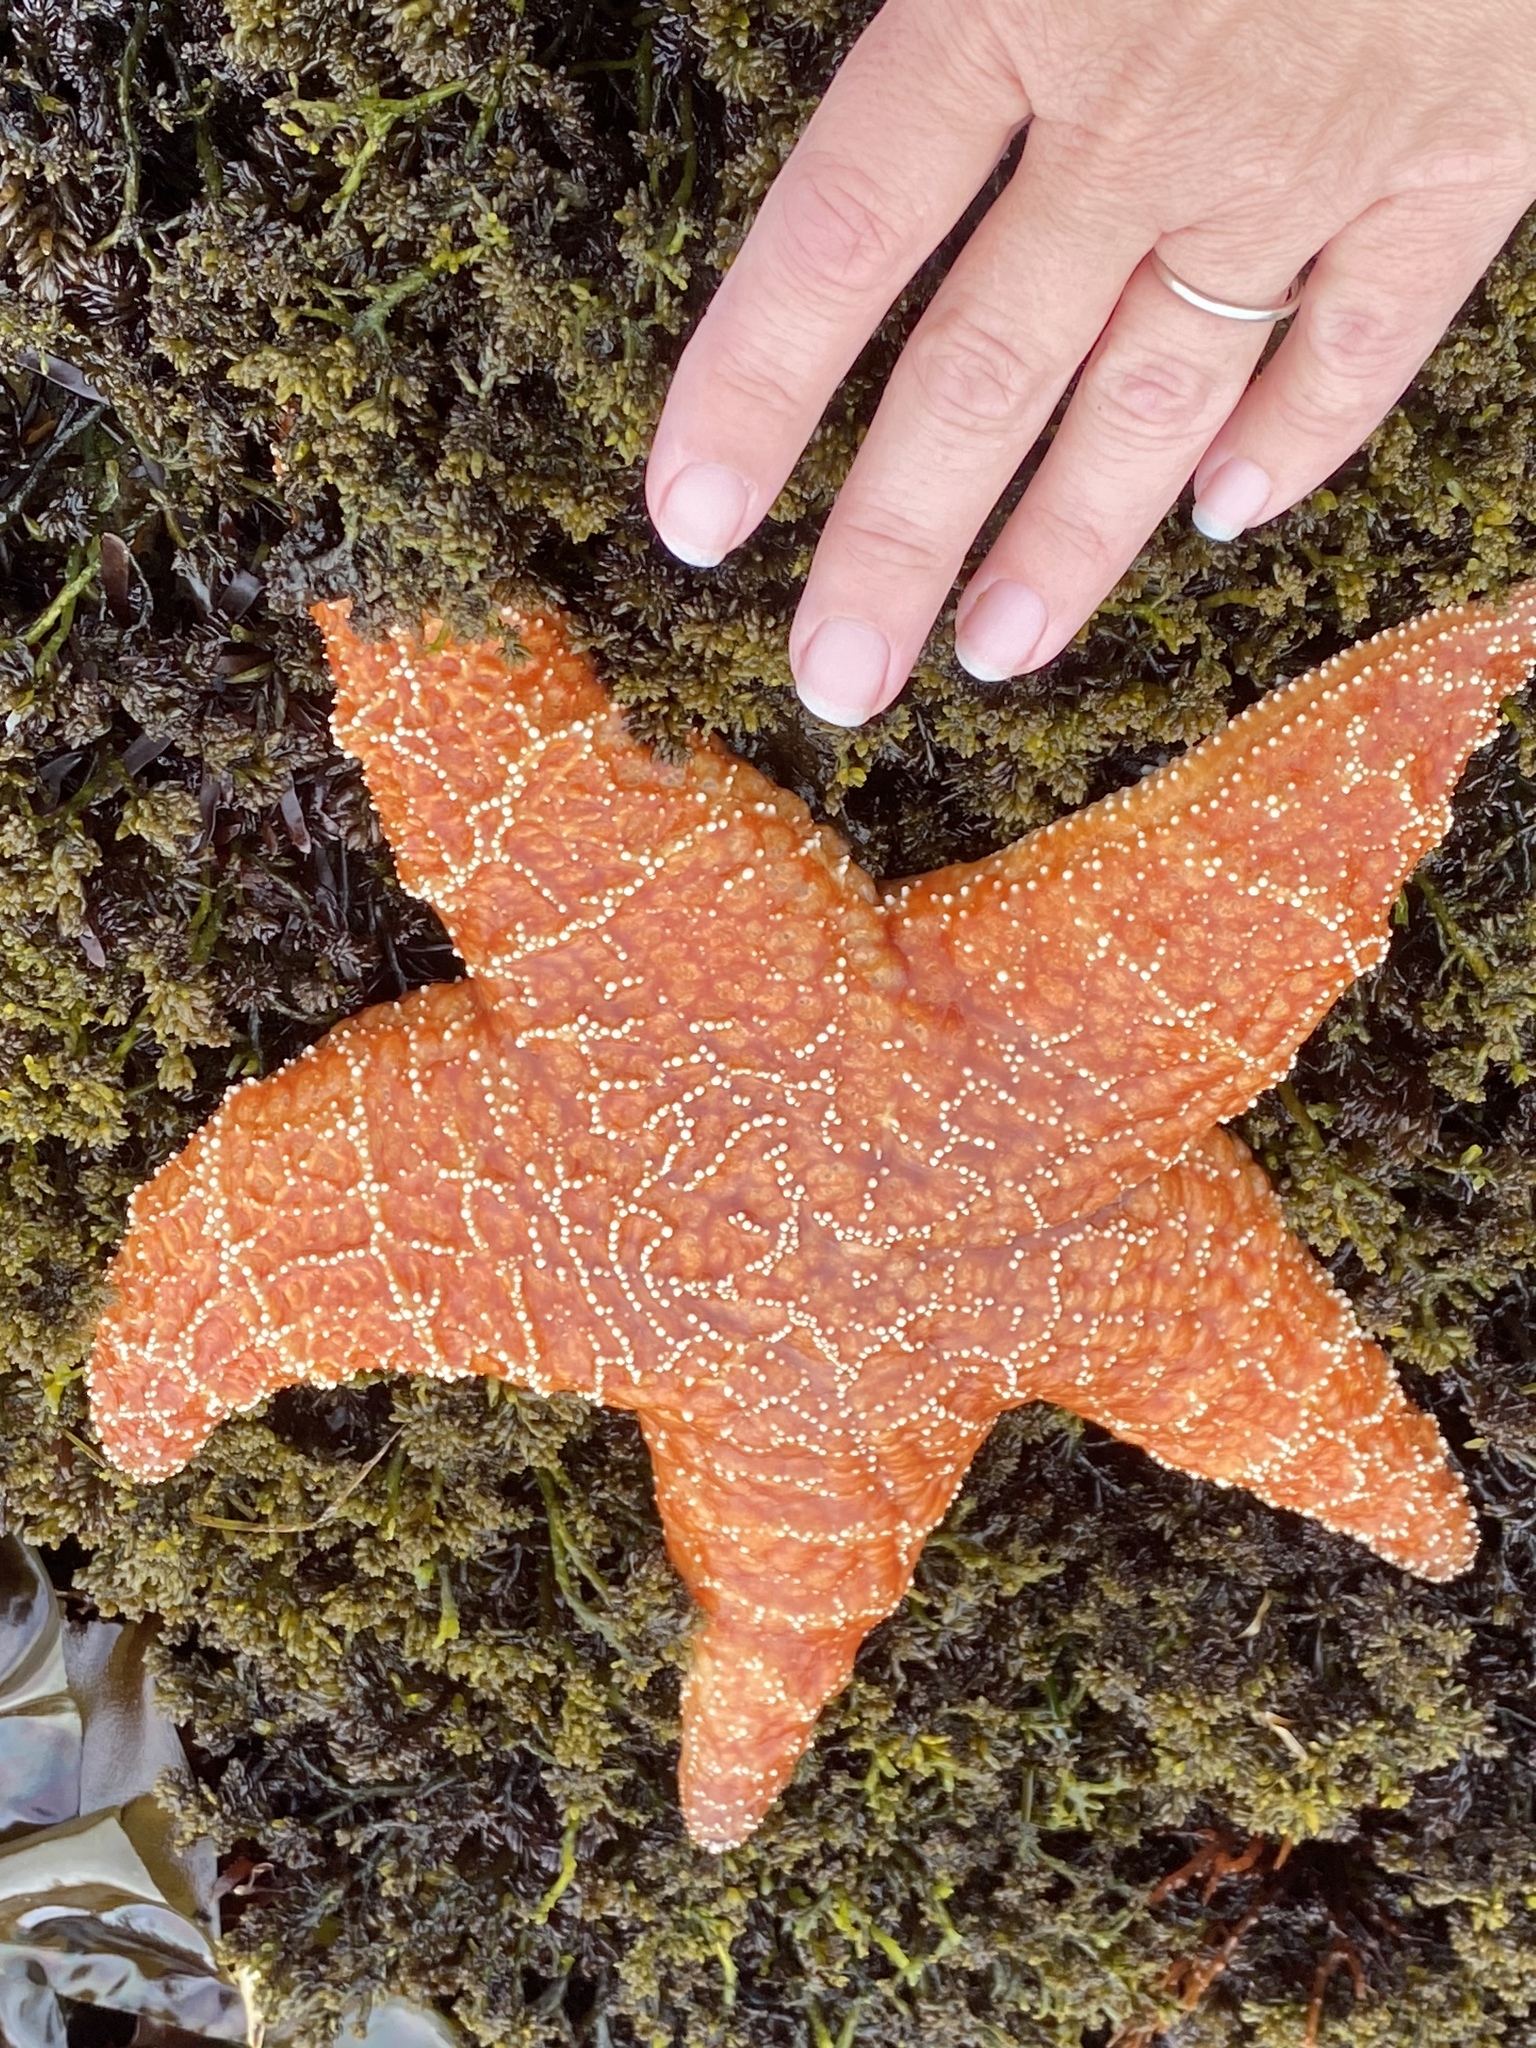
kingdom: Animalia
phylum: Echinodermata
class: Asteroidea
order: Forcipulatida
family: Asteriidae
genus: Pisaster
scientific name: Pisaster ochraceus
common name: Ochre stars
